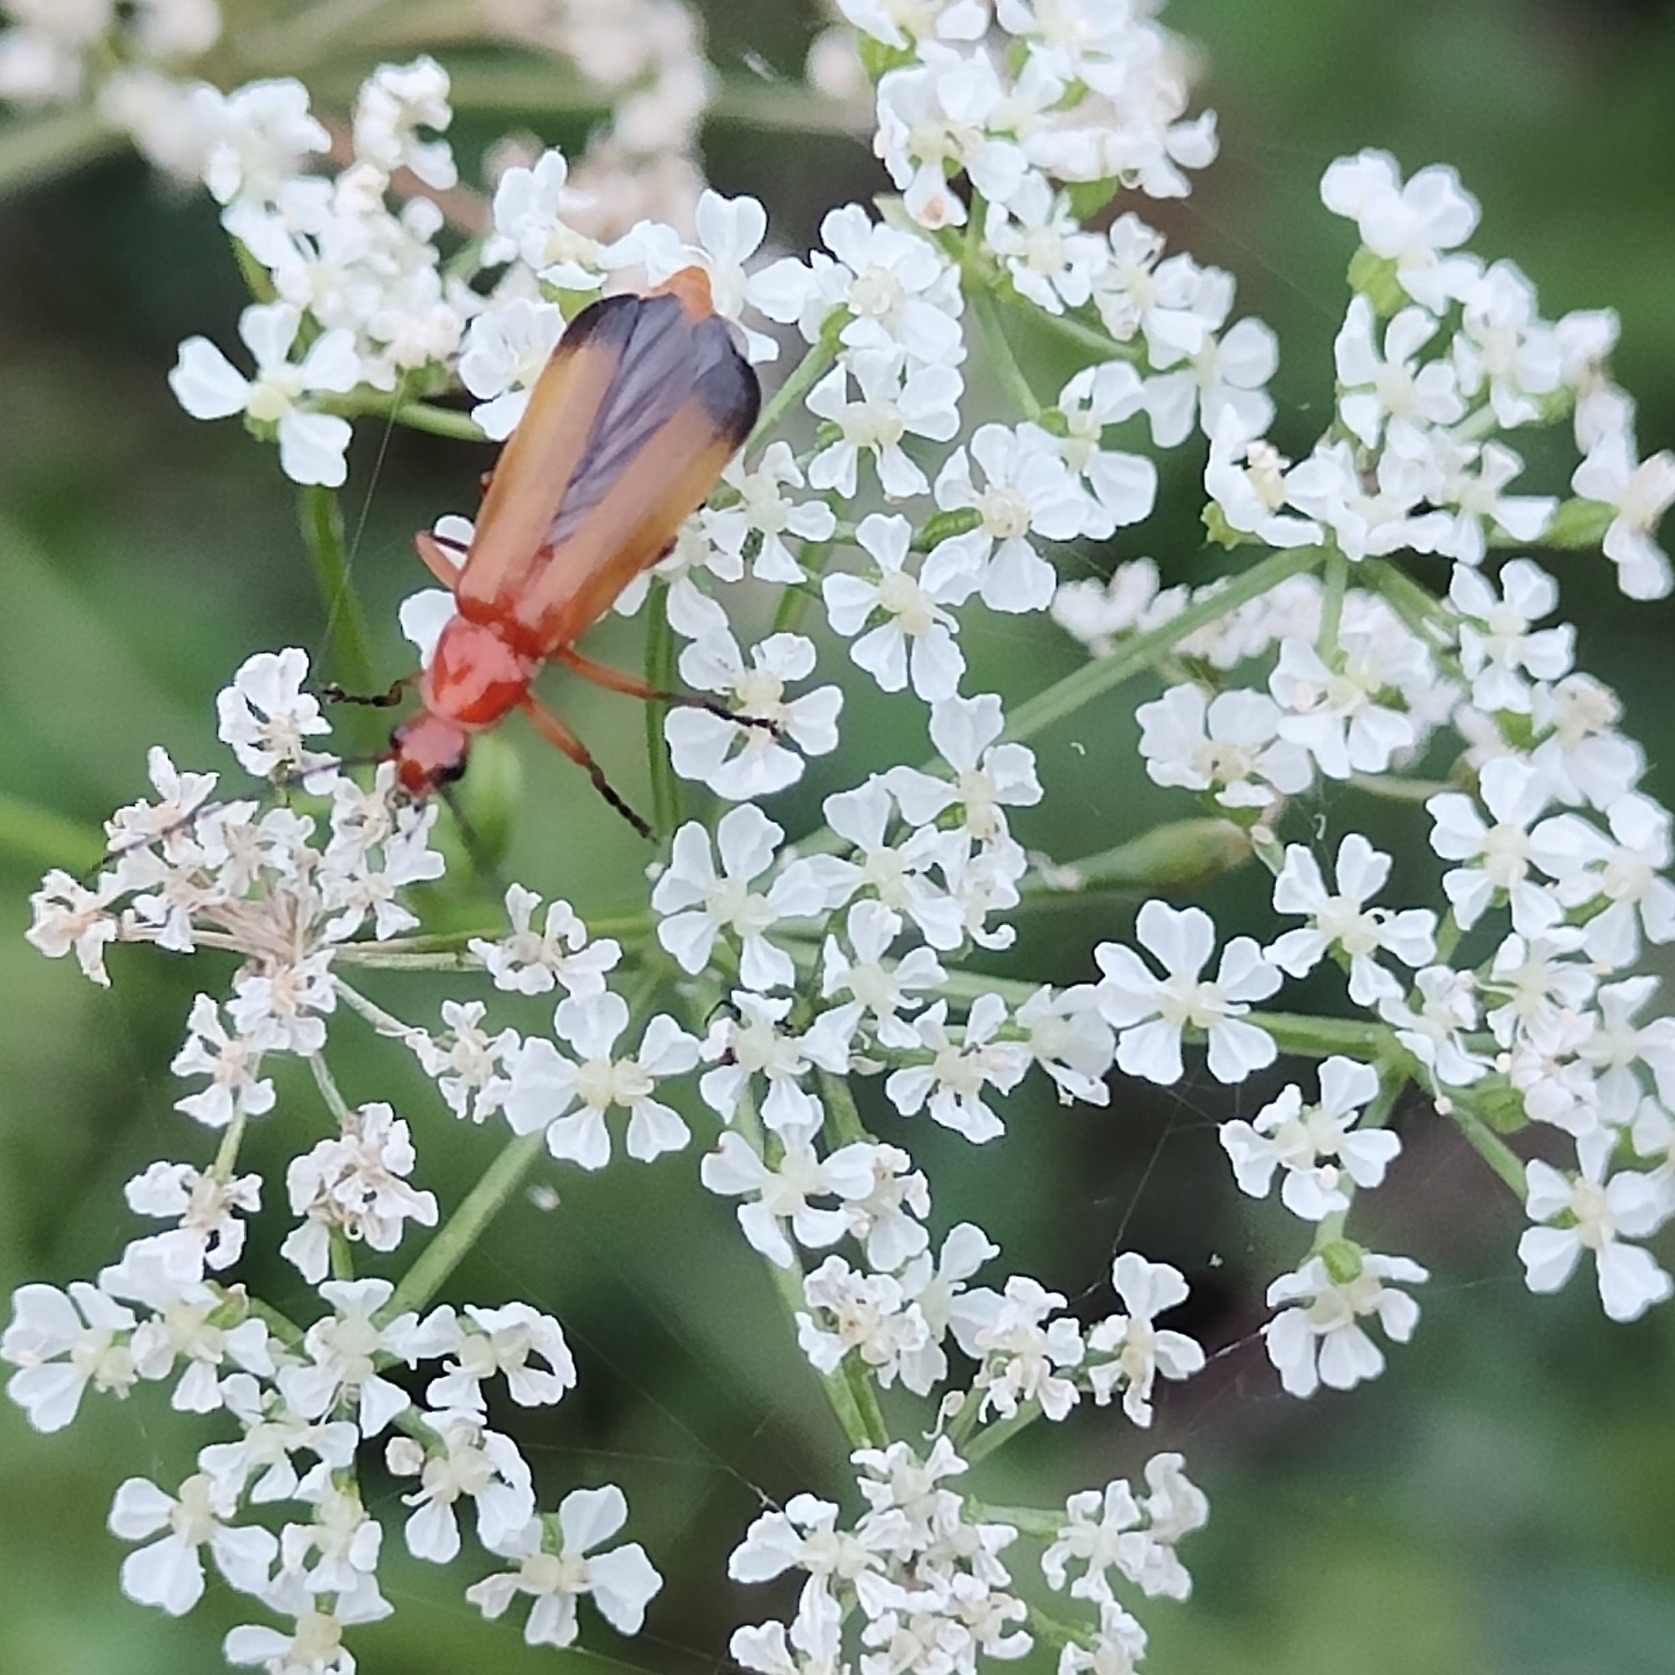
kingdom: Animalia
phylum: Arthropoda
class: Insecta
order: Coleoptera
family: Cantharidae
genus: Rhagonycha
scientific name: Rhagonycha fulva
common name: Common red soldier beetle
